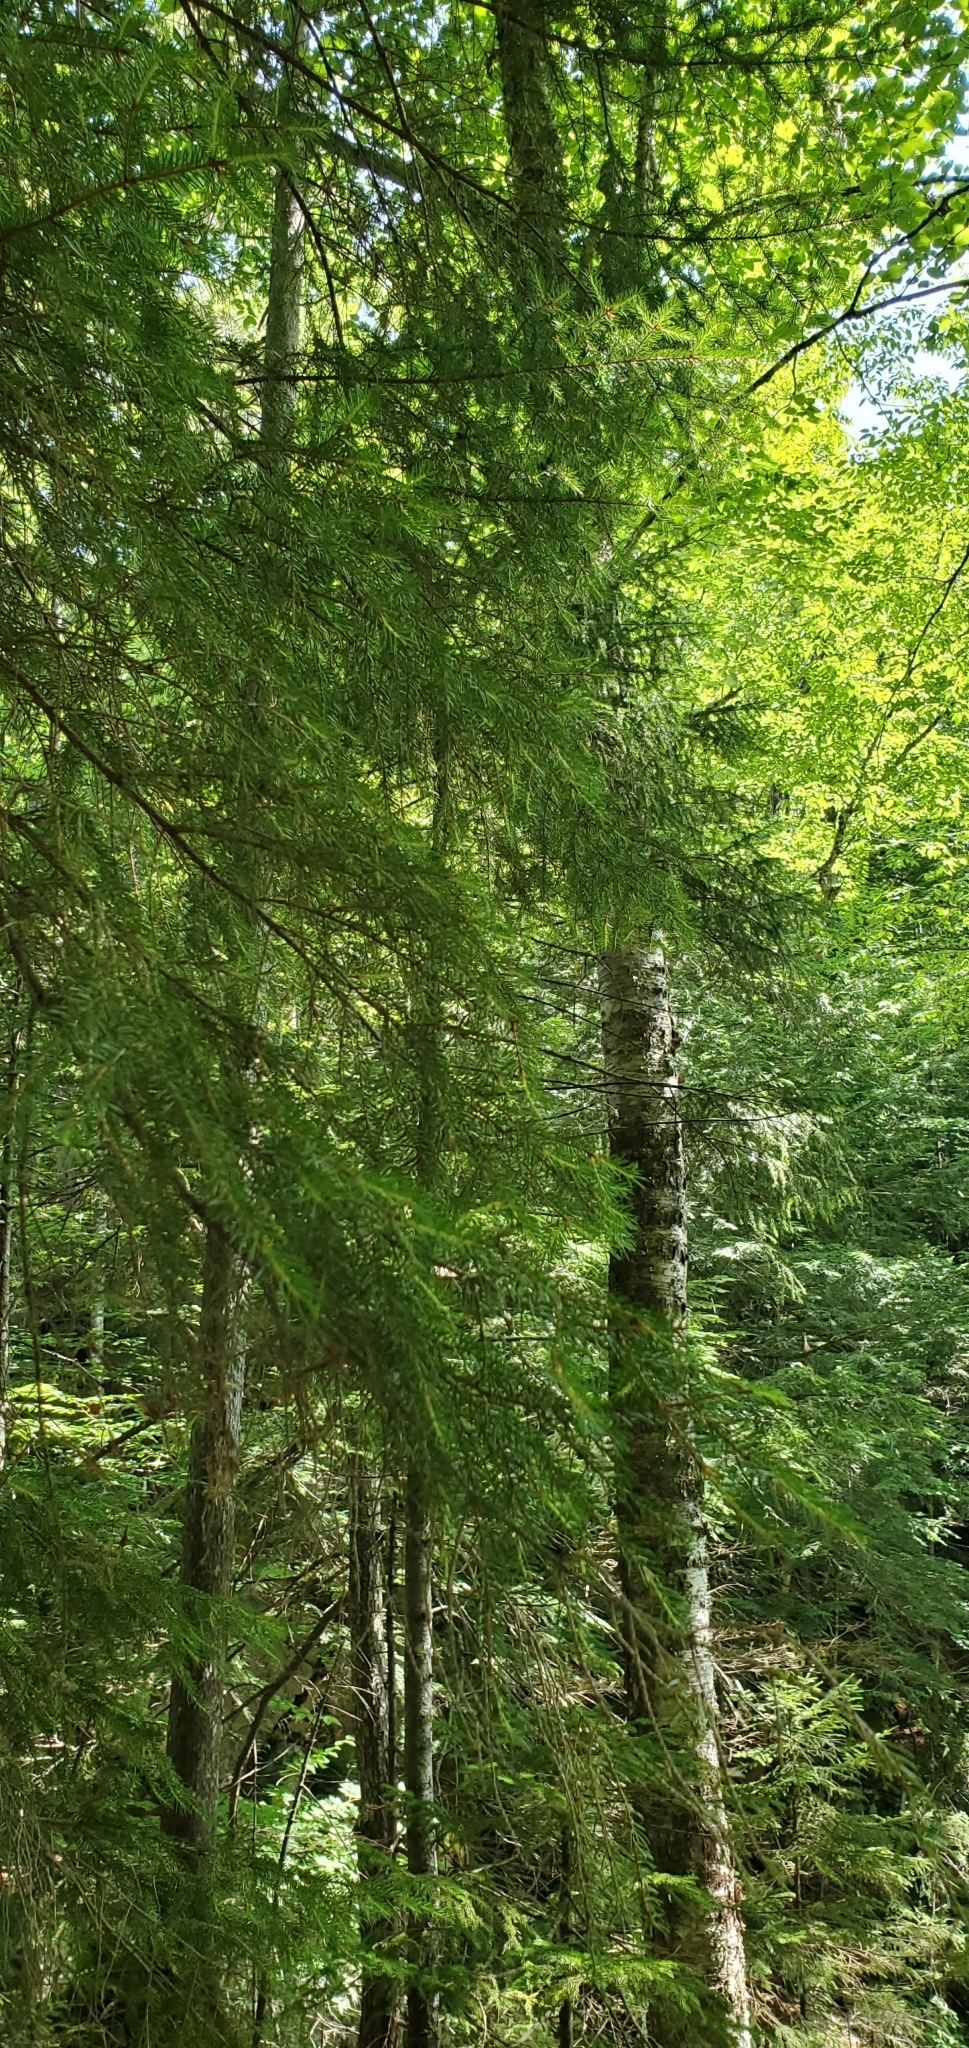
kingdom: Plantae
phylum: Tracheophyta
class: Pinopsida
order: Pinales
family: Pinaceae
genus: Tsuga
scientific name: Tsuga canadensis
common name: Eastern hemlock
